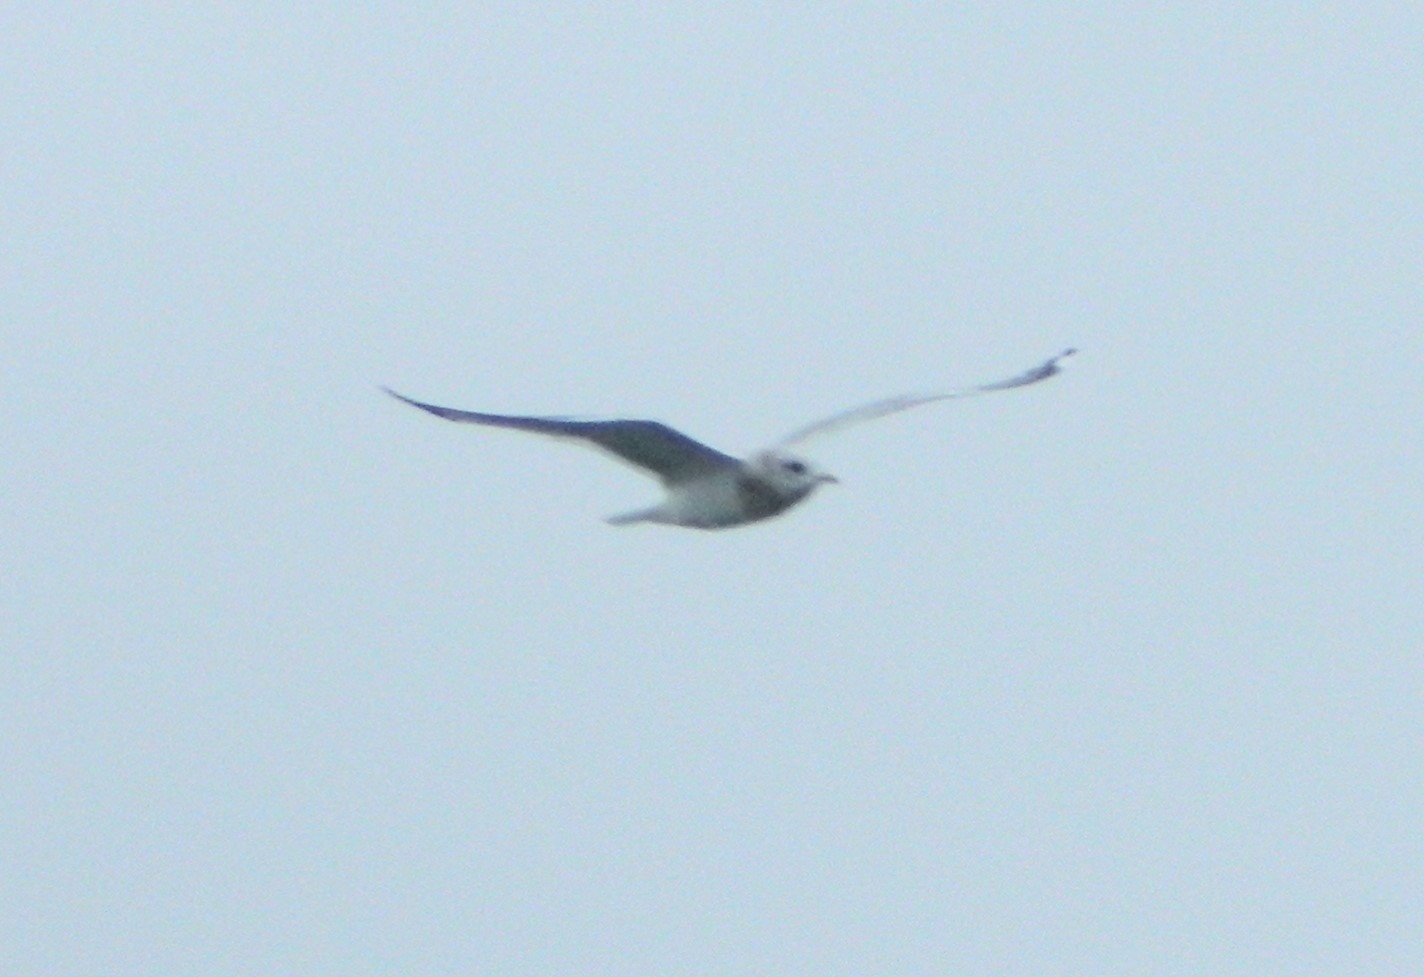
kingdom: Animalia
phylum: Chordata
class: Aves
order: Charadriiformes
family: Laridae
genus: Larus
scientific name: Larus brachyrhynchus
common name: Short-billed gull
